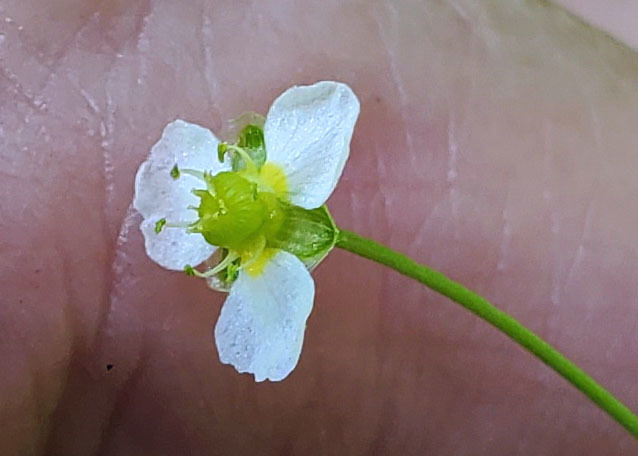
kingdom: Plantae
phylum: Tracheophyta
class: Liliopsida
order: Alismatales
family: Alismataceae
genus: Alisma
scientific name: Alisma triviale
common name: Northern water-plantain
